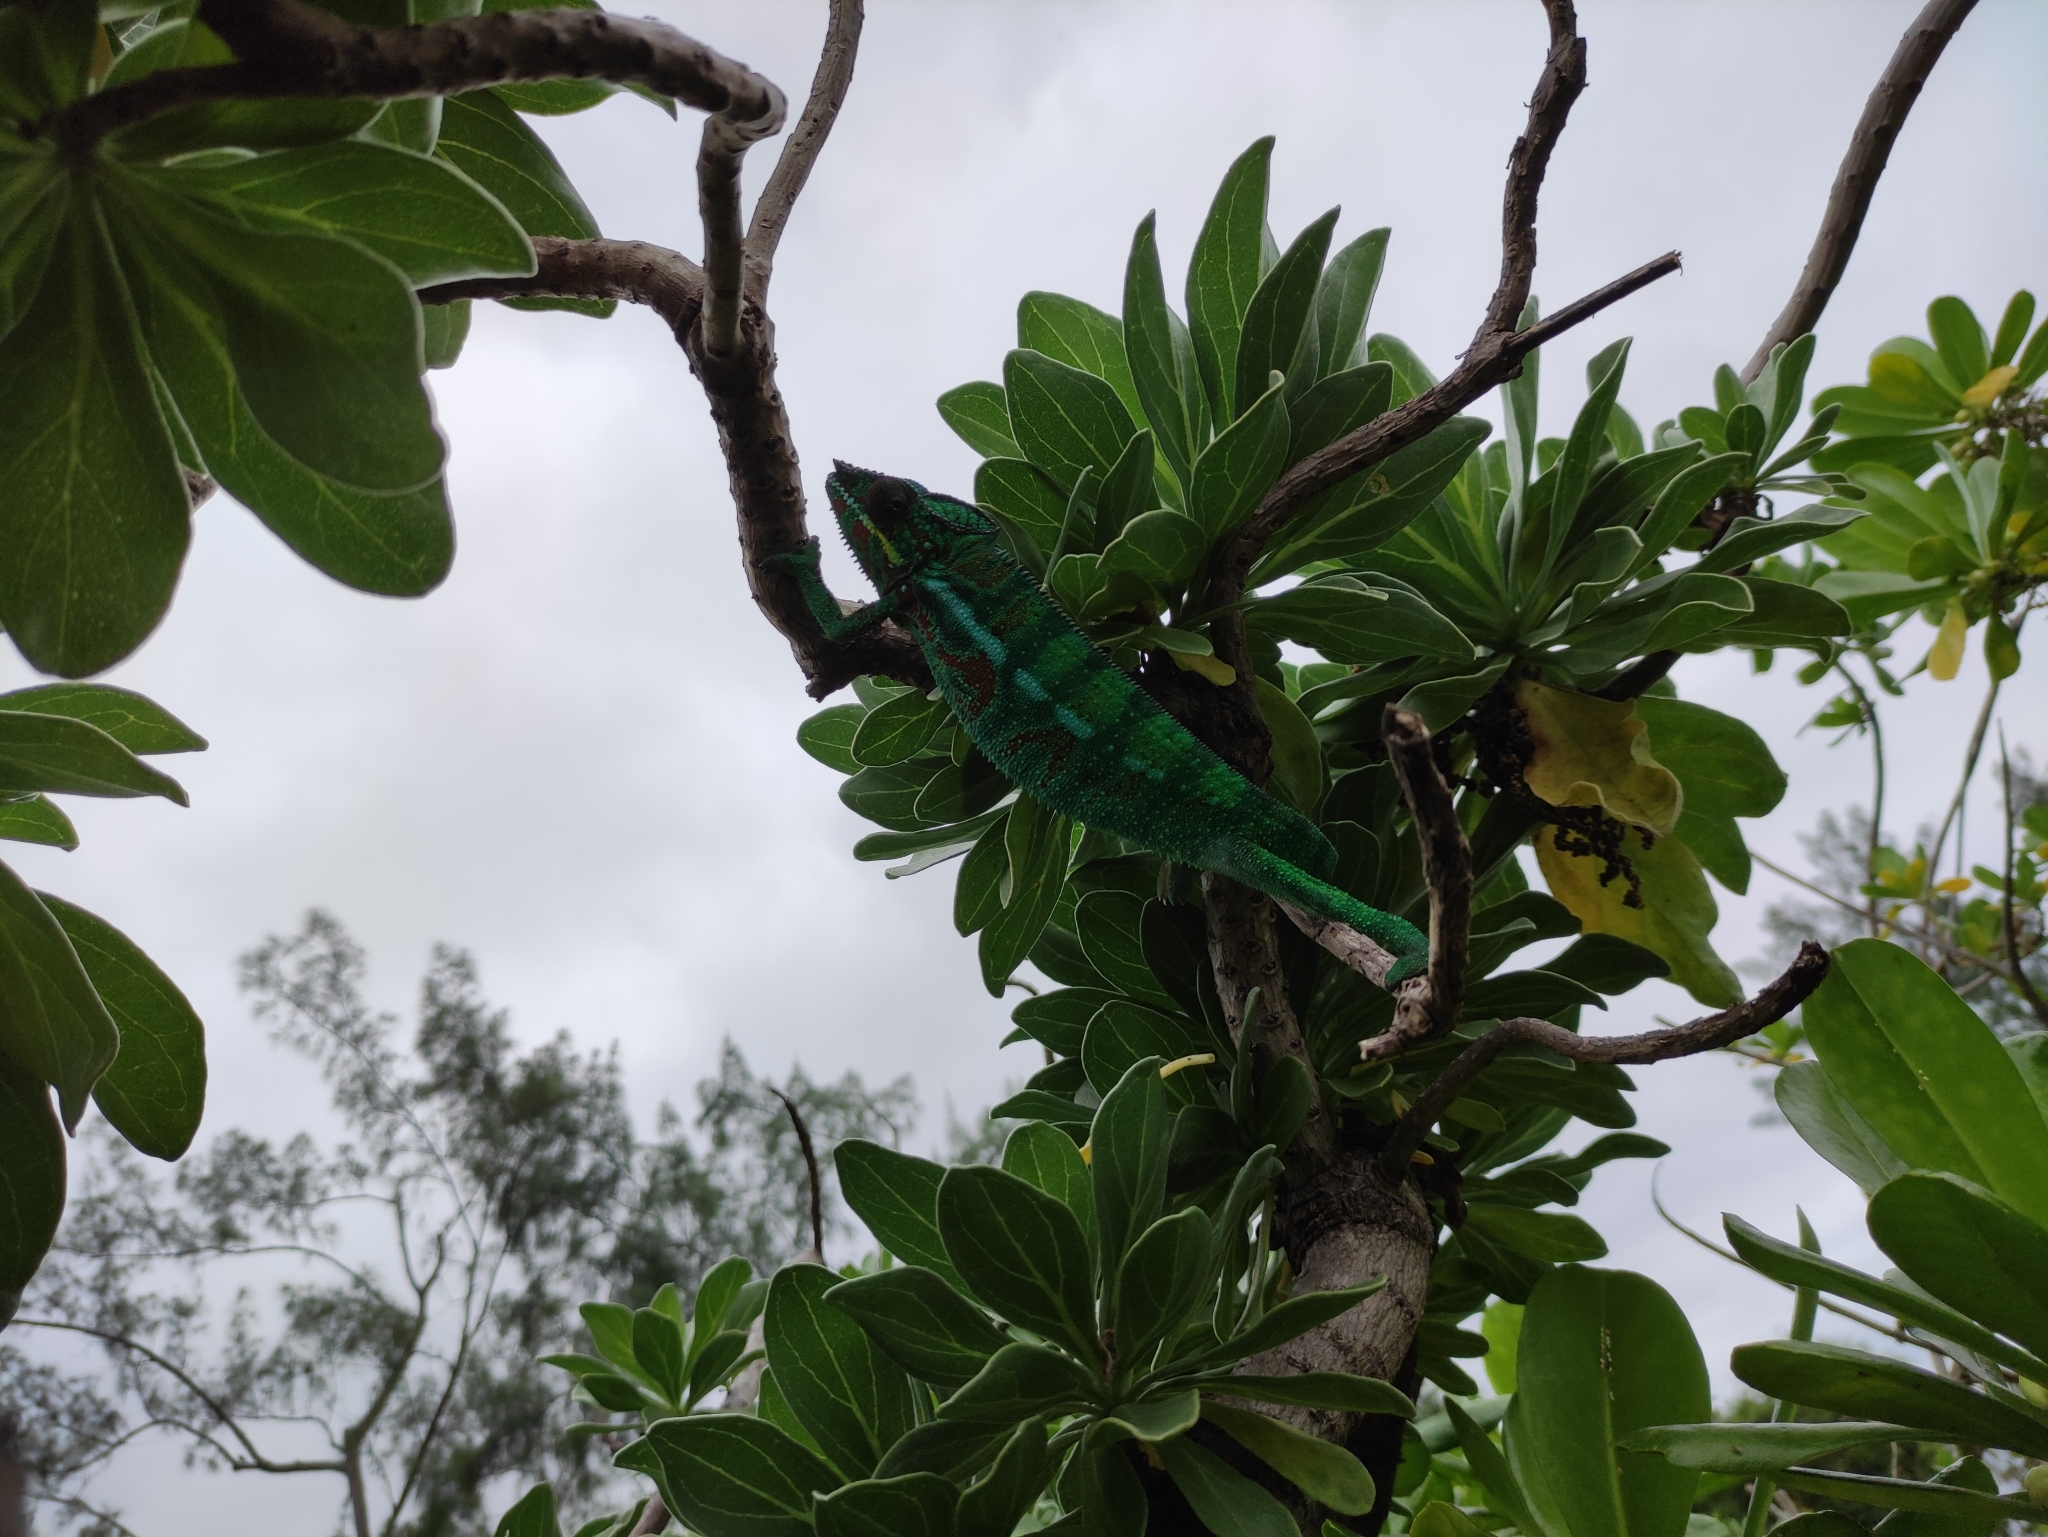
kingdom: Animalia
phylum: Chordata
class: Squamata
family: Chamaeleonidae
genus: Furcifer
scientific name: Furcifer pardalis
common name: Panther chameleon
